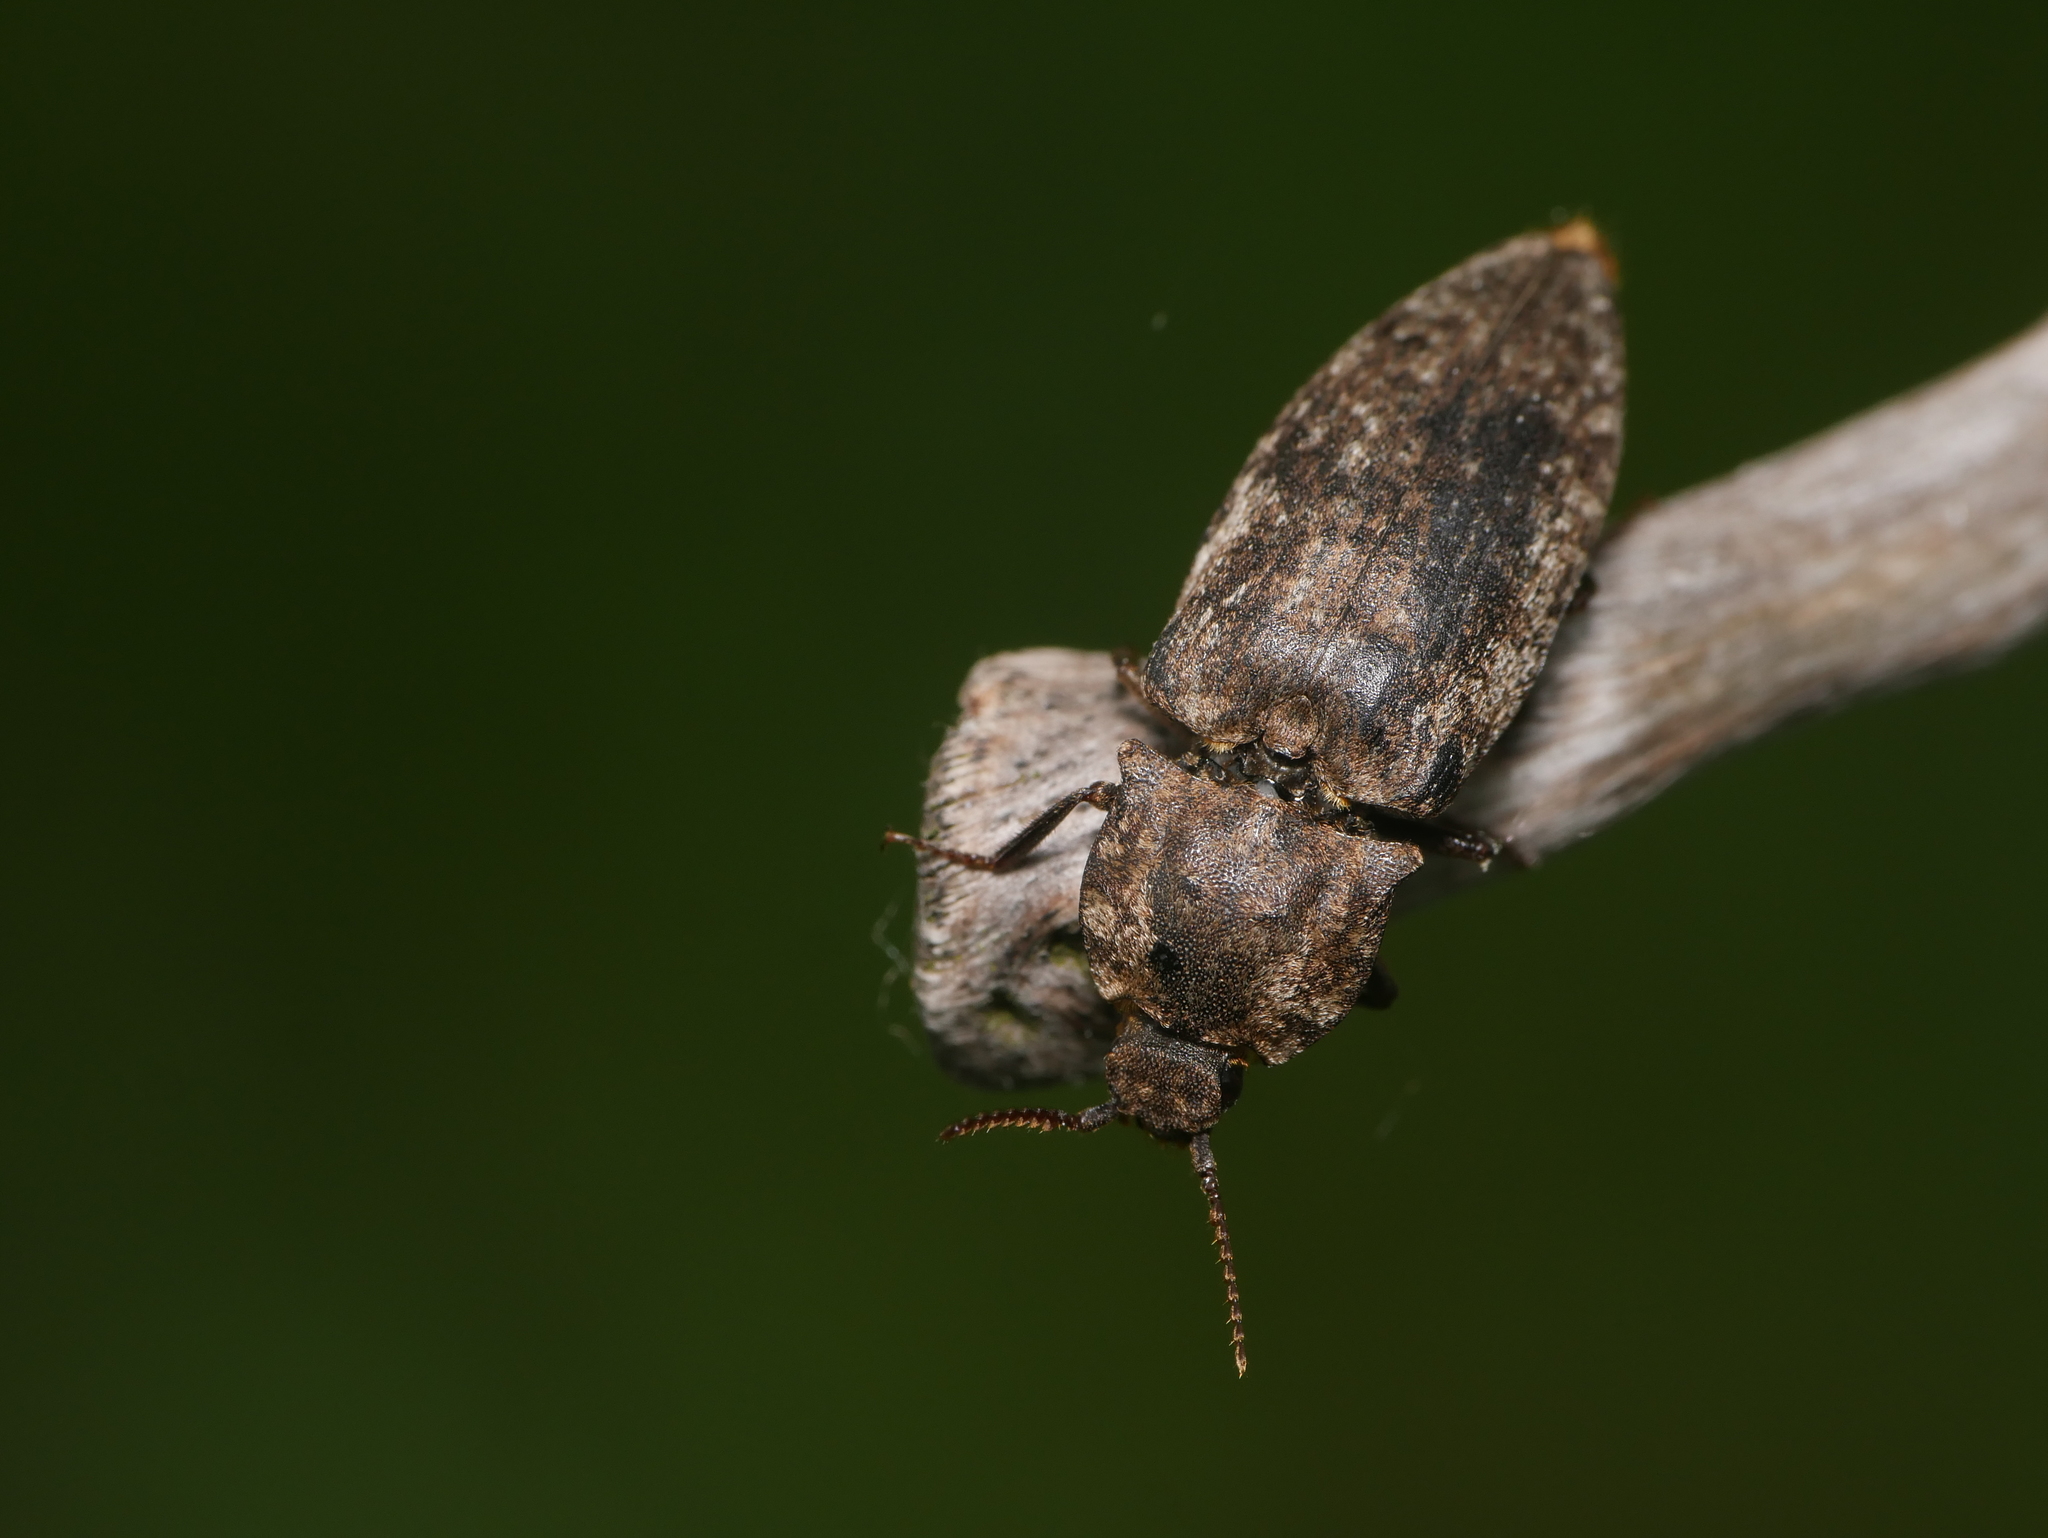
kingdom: Animalia
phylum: Arthropoda
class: Insecta
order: Coleoptera
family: Elateridae
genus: Agrypnus
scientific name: Agrypnus murinus
